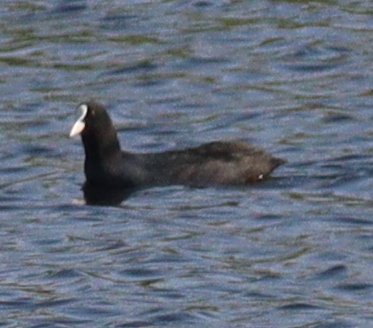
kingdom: Animalia
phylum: Chordata
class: Aves
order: Gruiformes
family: Rallidae
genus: Fulica
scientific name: Fulica atra
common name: Eurasian coot
